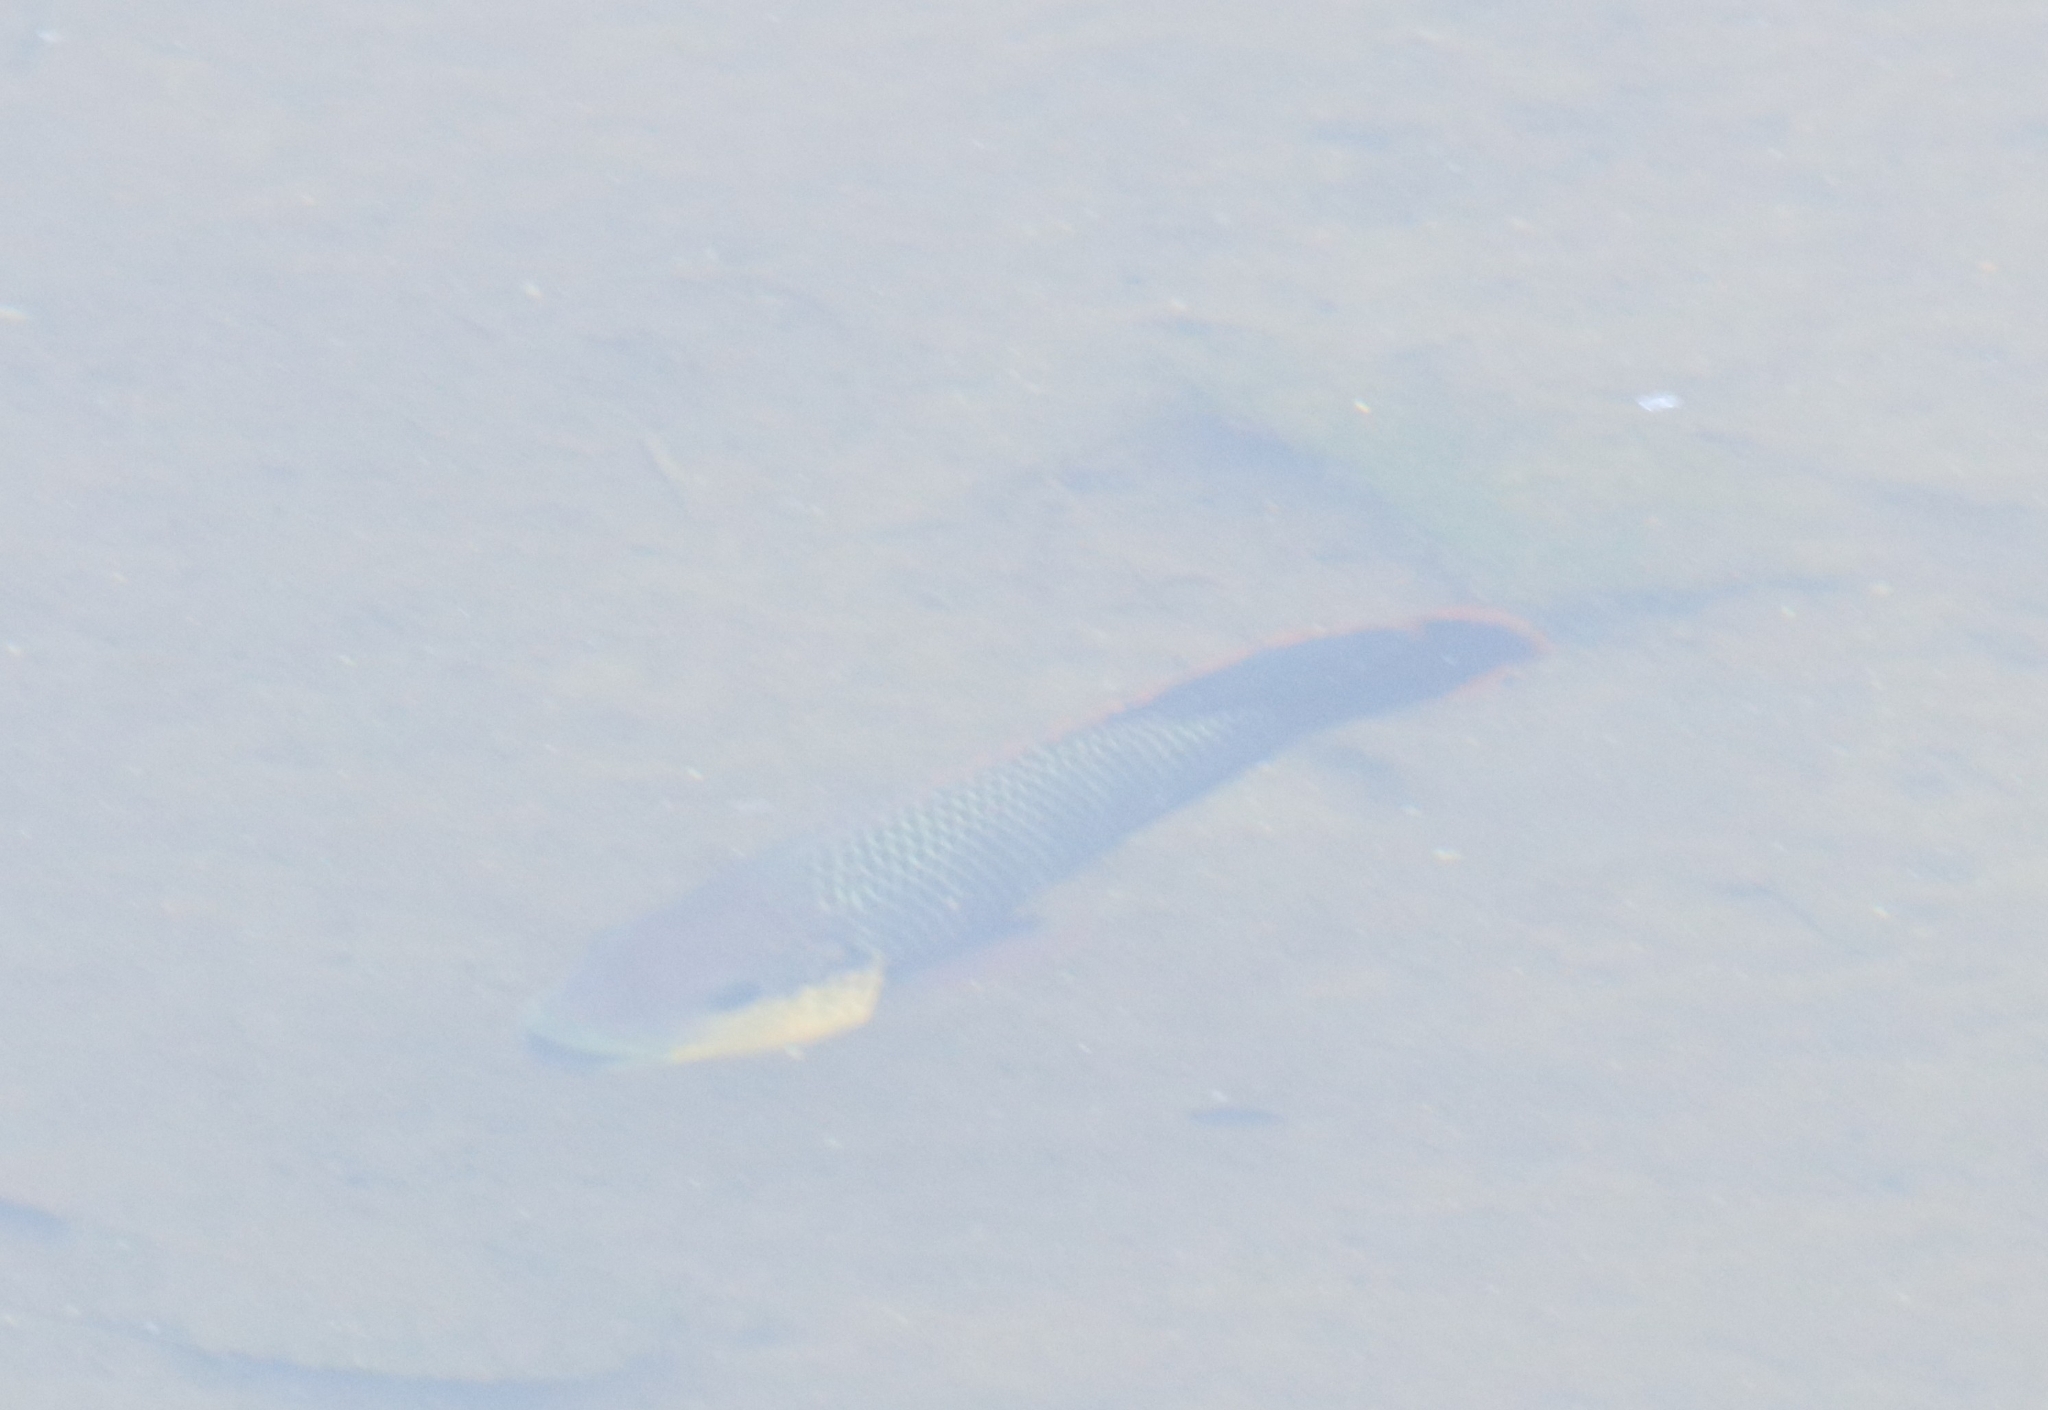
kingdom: Animalia
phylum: Chordata
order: Perciformes
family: Cichlidae
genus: Oreochromis
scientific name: Oreochromis mossambicus
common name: Mozambique tilapia
